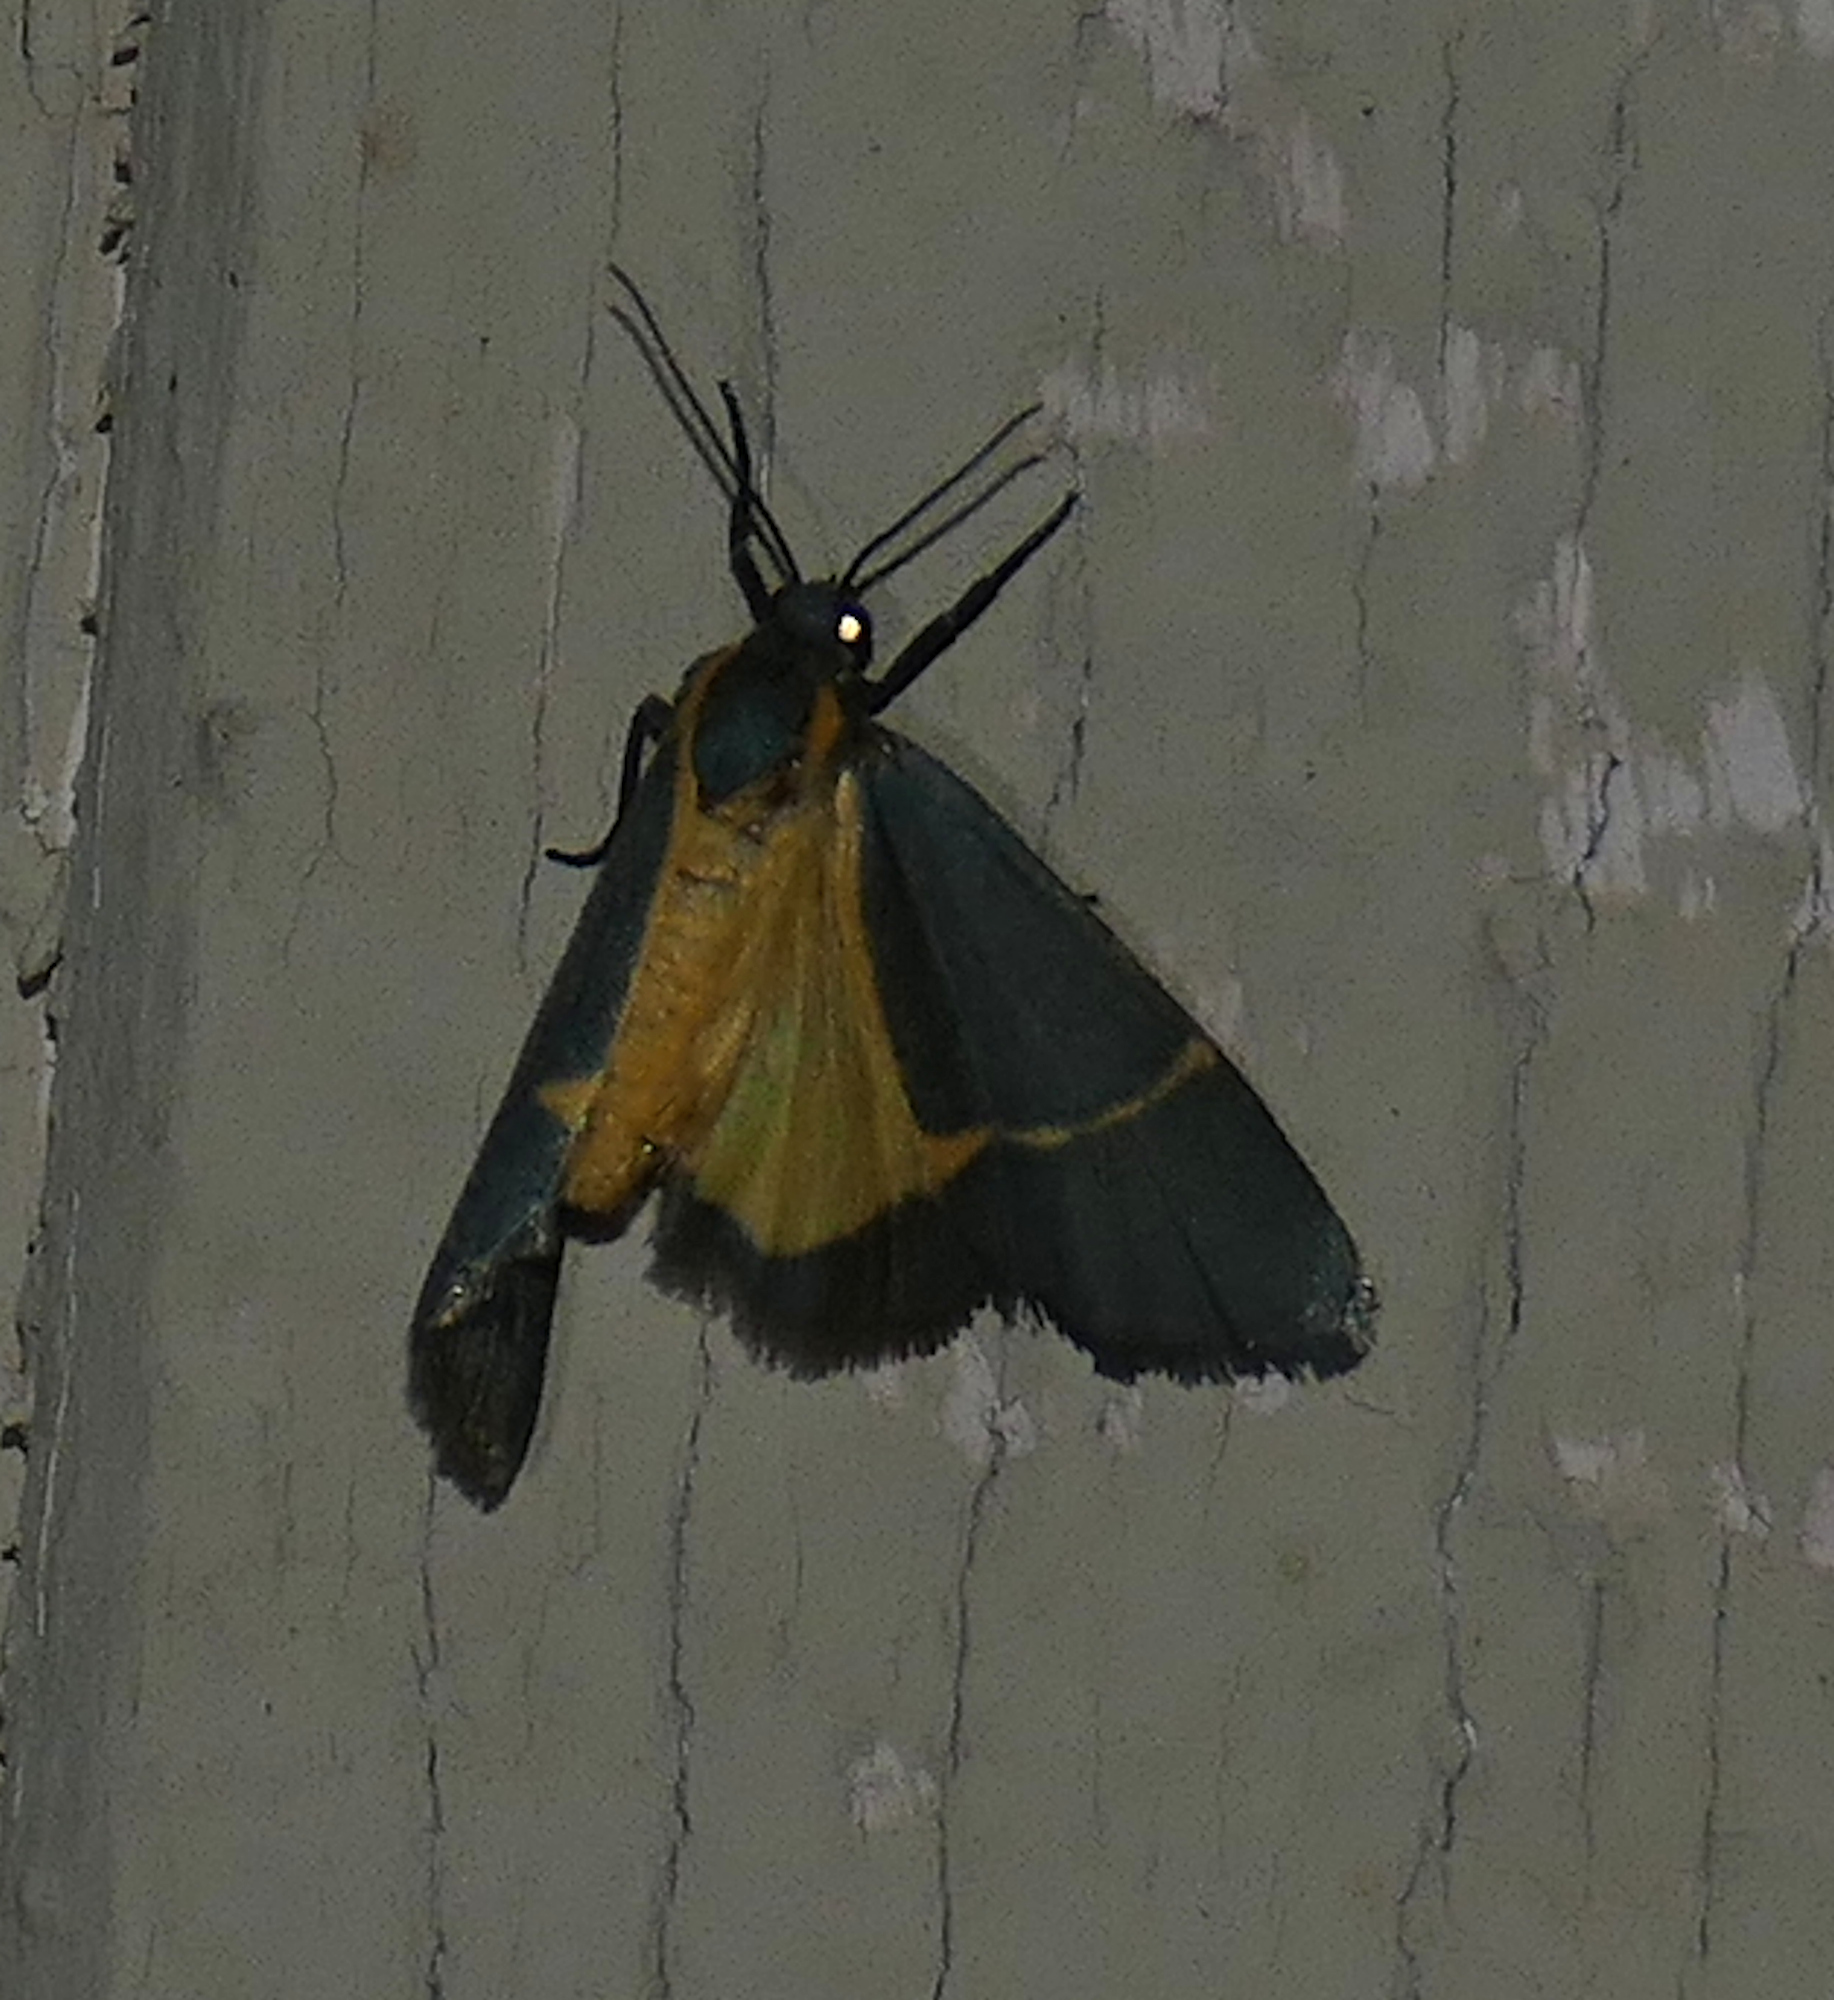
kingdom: Animalia
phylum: Arthropoda
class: Insecta
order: Lepidoptera
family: Erebidae
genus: Cisthene
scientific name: Cisthene barnesii
